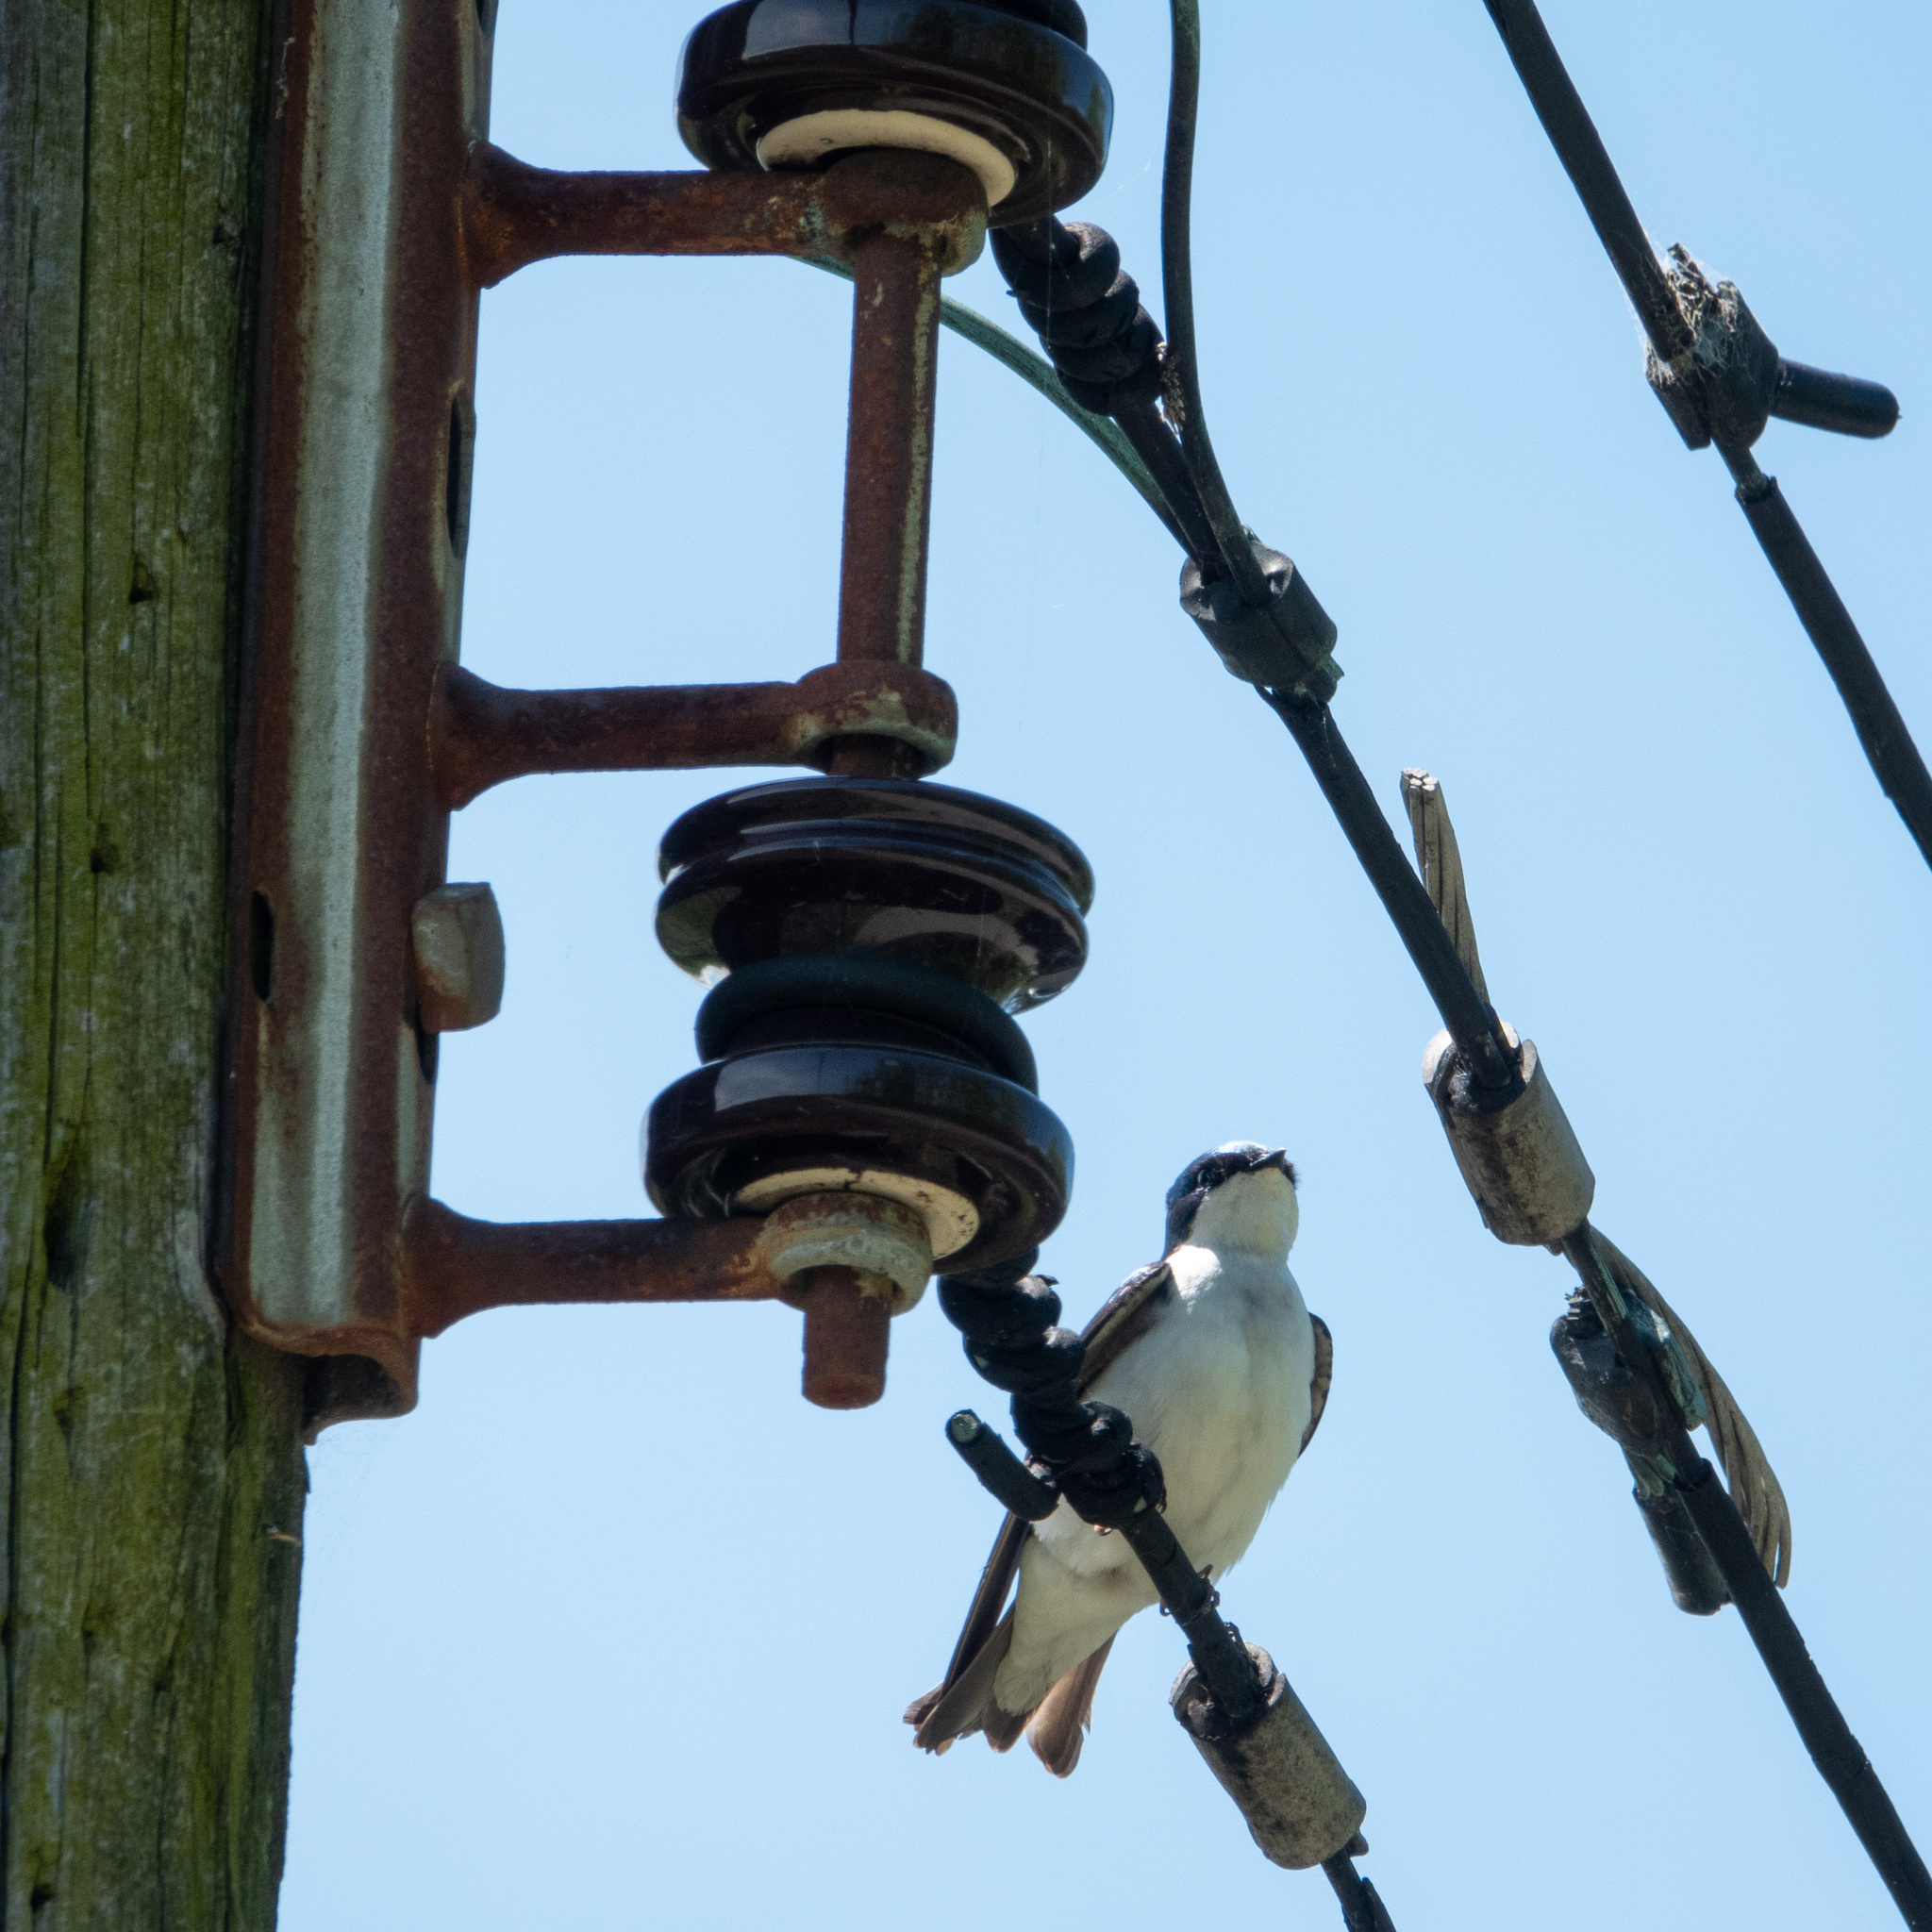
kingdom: Animalia
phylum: Chordata
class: Aves
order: Passeriformes
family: Hirundinidae
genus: Tachycineta
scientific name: Tachycineta bicolor
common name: Tree swallow
